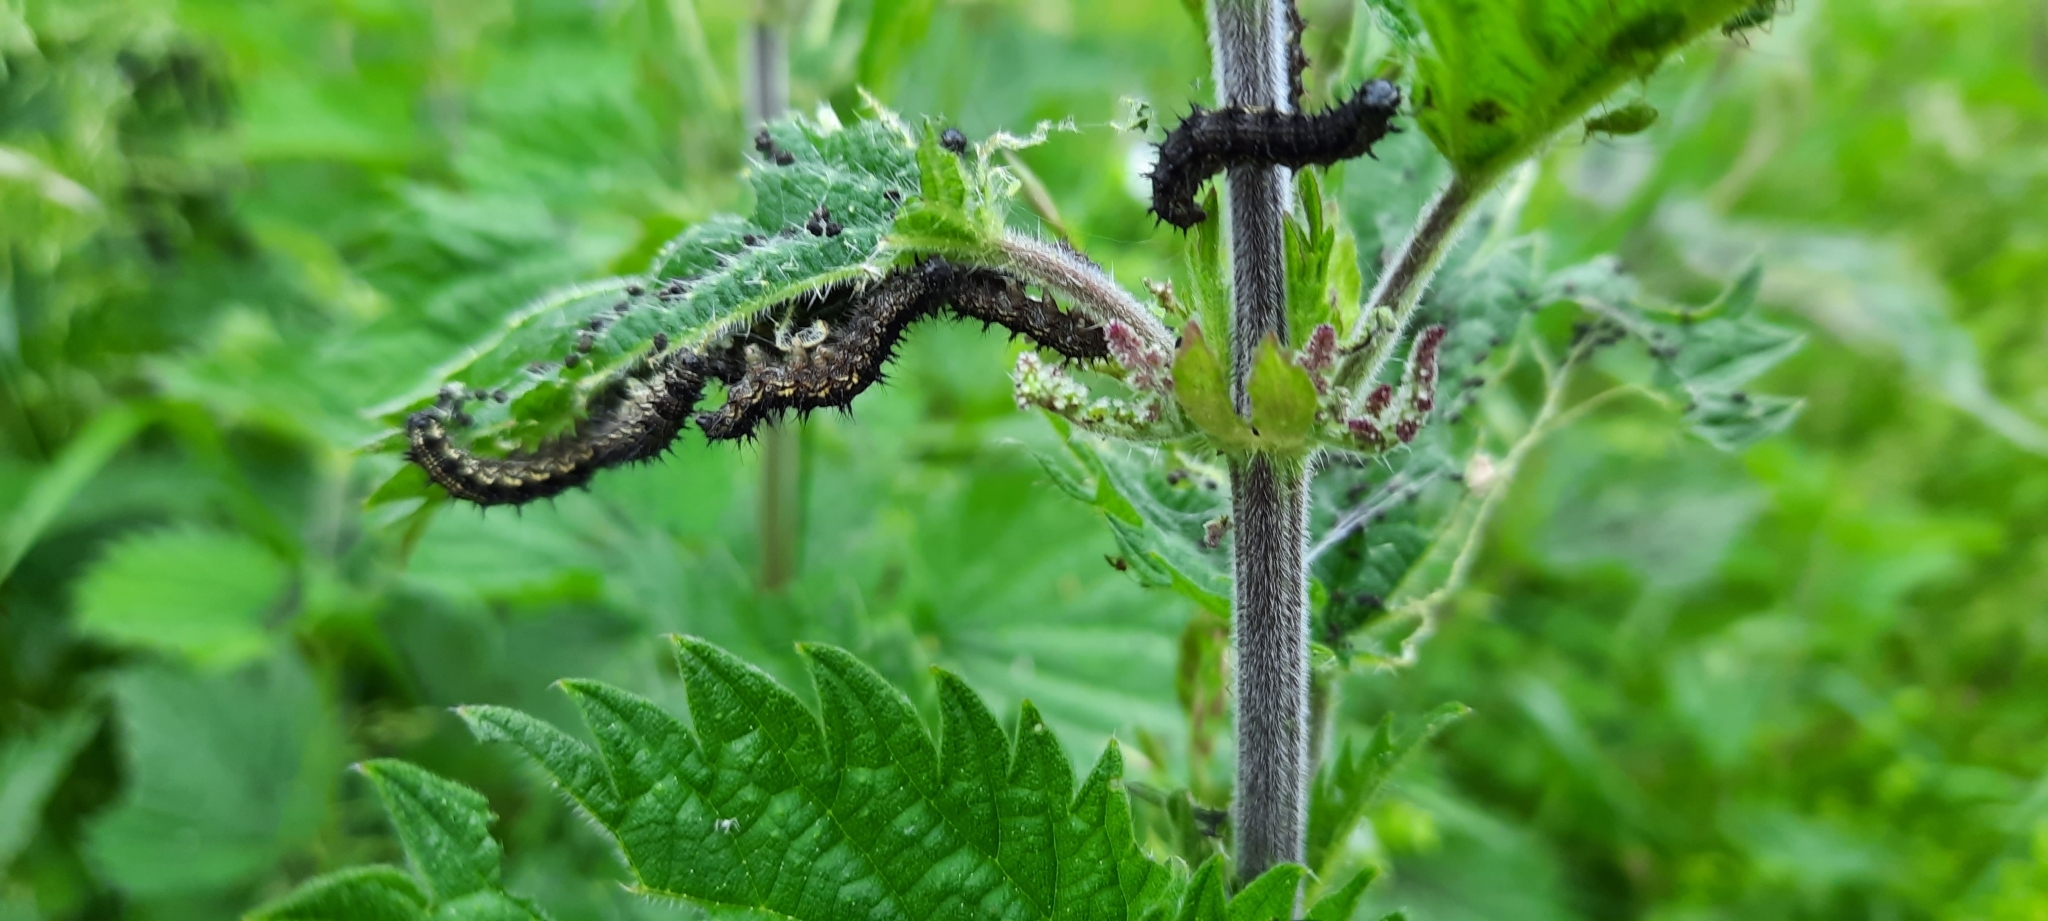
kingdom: Animalia
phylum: Arthropoda
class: Insecta
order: Lepidoptera
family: Nymphalidae
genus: Aglais
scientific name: Aglais urticae
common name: Small tortoiseshell
